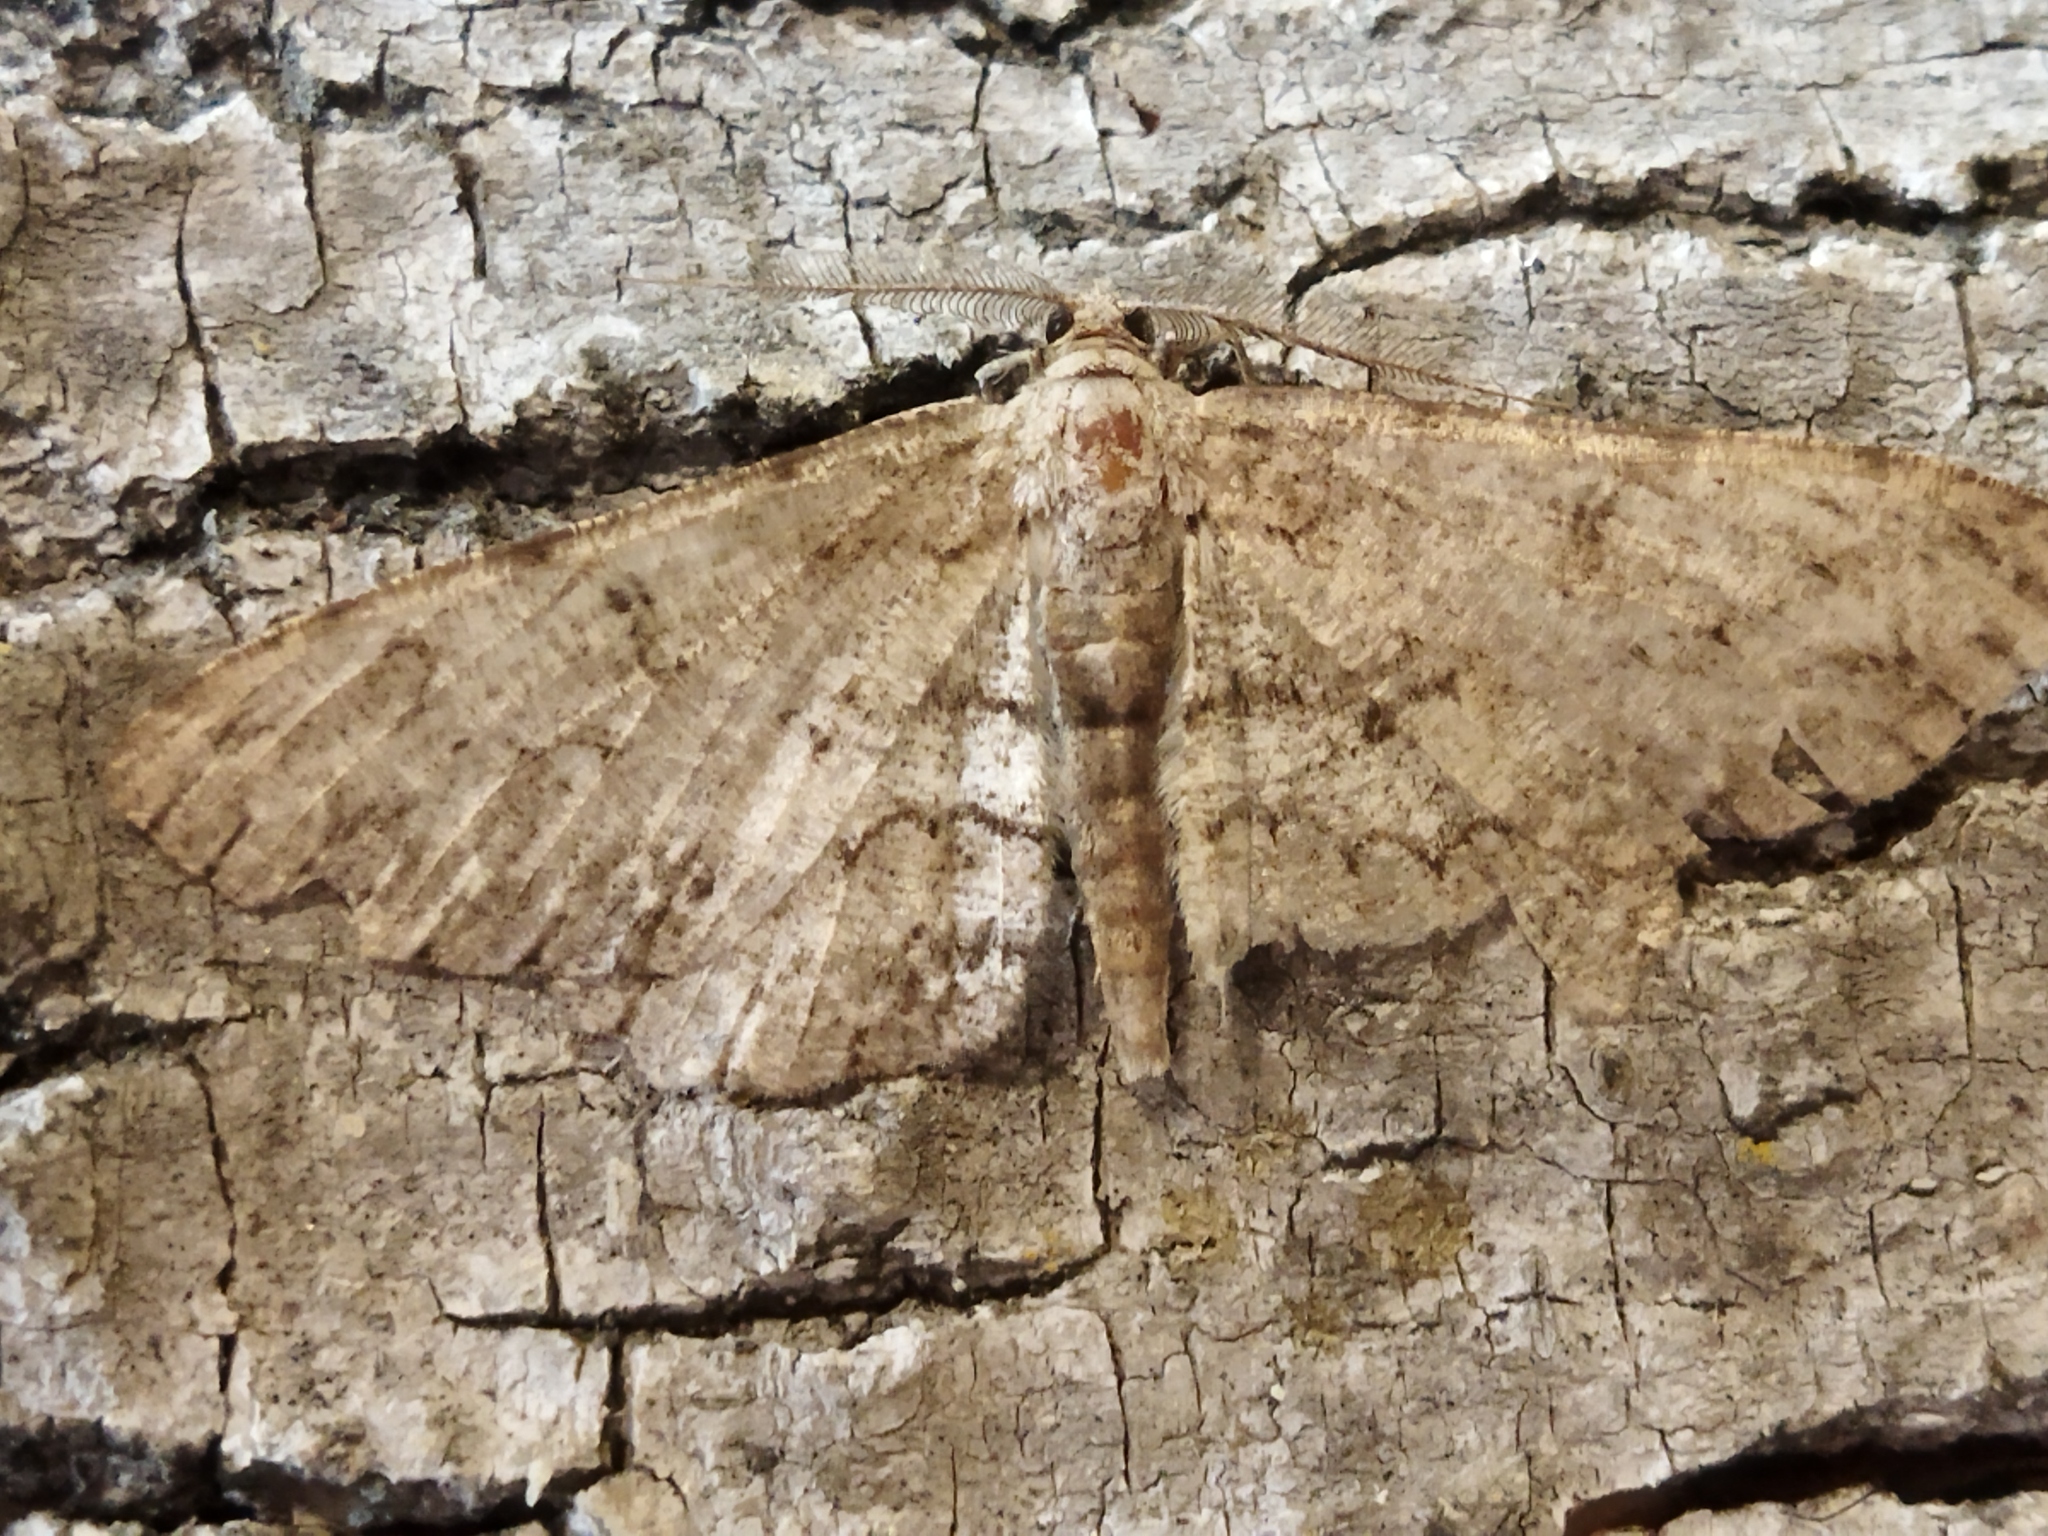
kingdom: Animalia
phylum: Arthropoda
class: Insecta
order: Lepidoptera
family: Geometridae
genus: Hypomecis
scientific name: Hypomecis punctinalis
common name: Pale oak beauty
